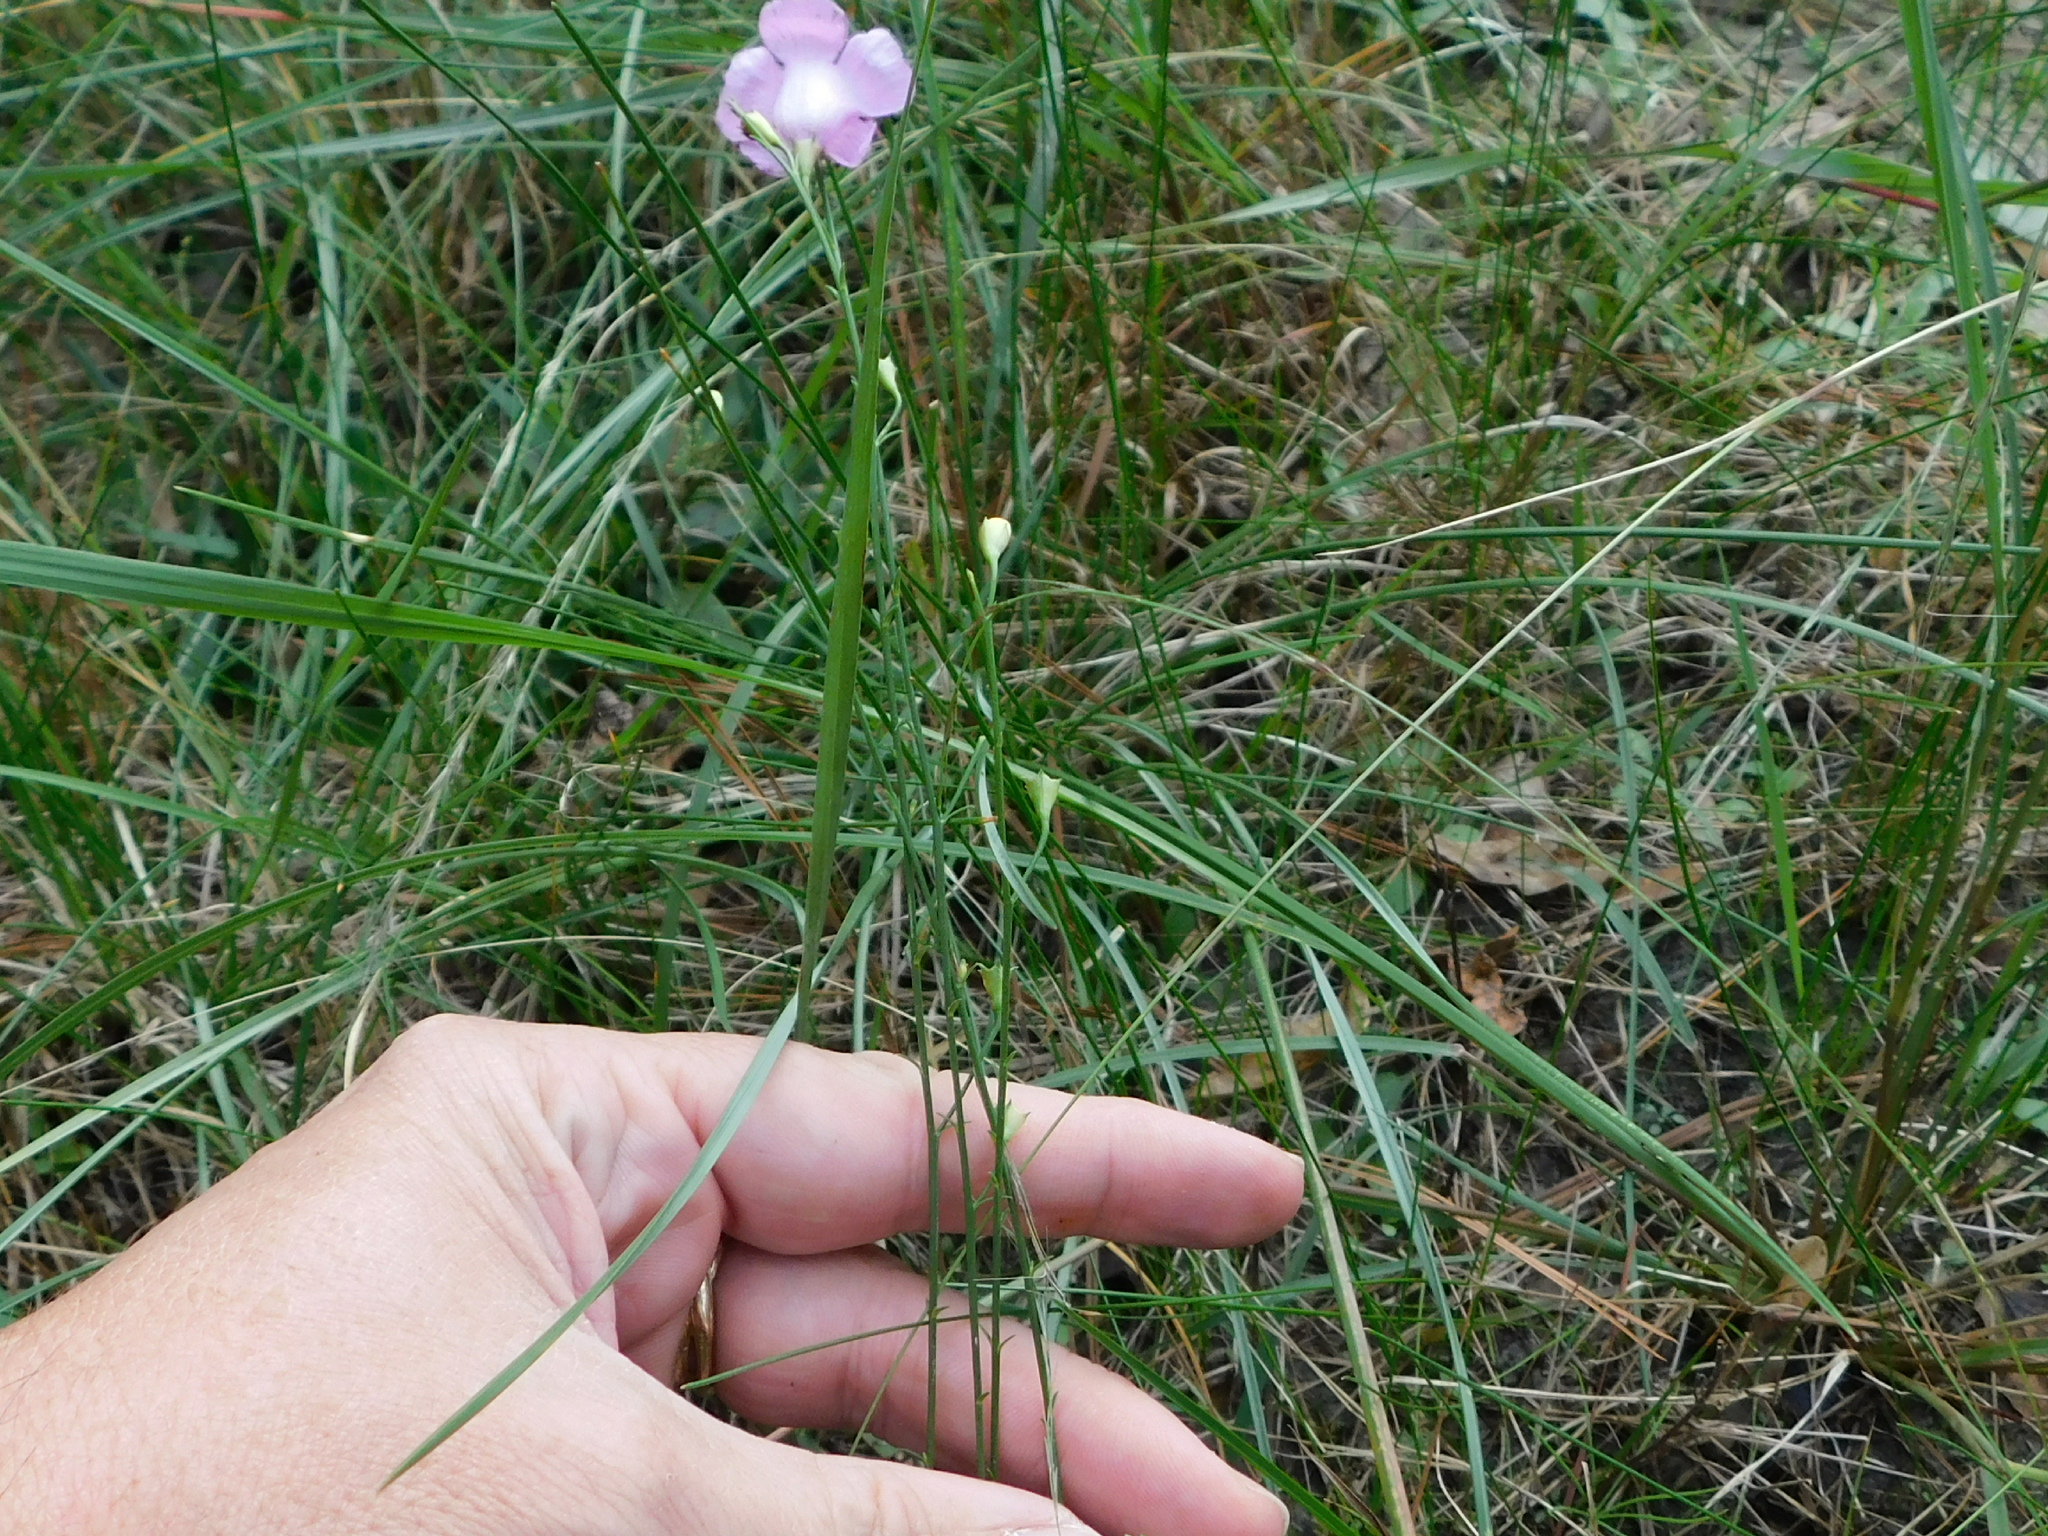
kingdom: Plantae
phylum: Tracheophyta
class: Magnoliopsida
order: Lamiales
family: Orobanchaceae
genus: Agalinis
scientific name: Agalinis oligophylla
